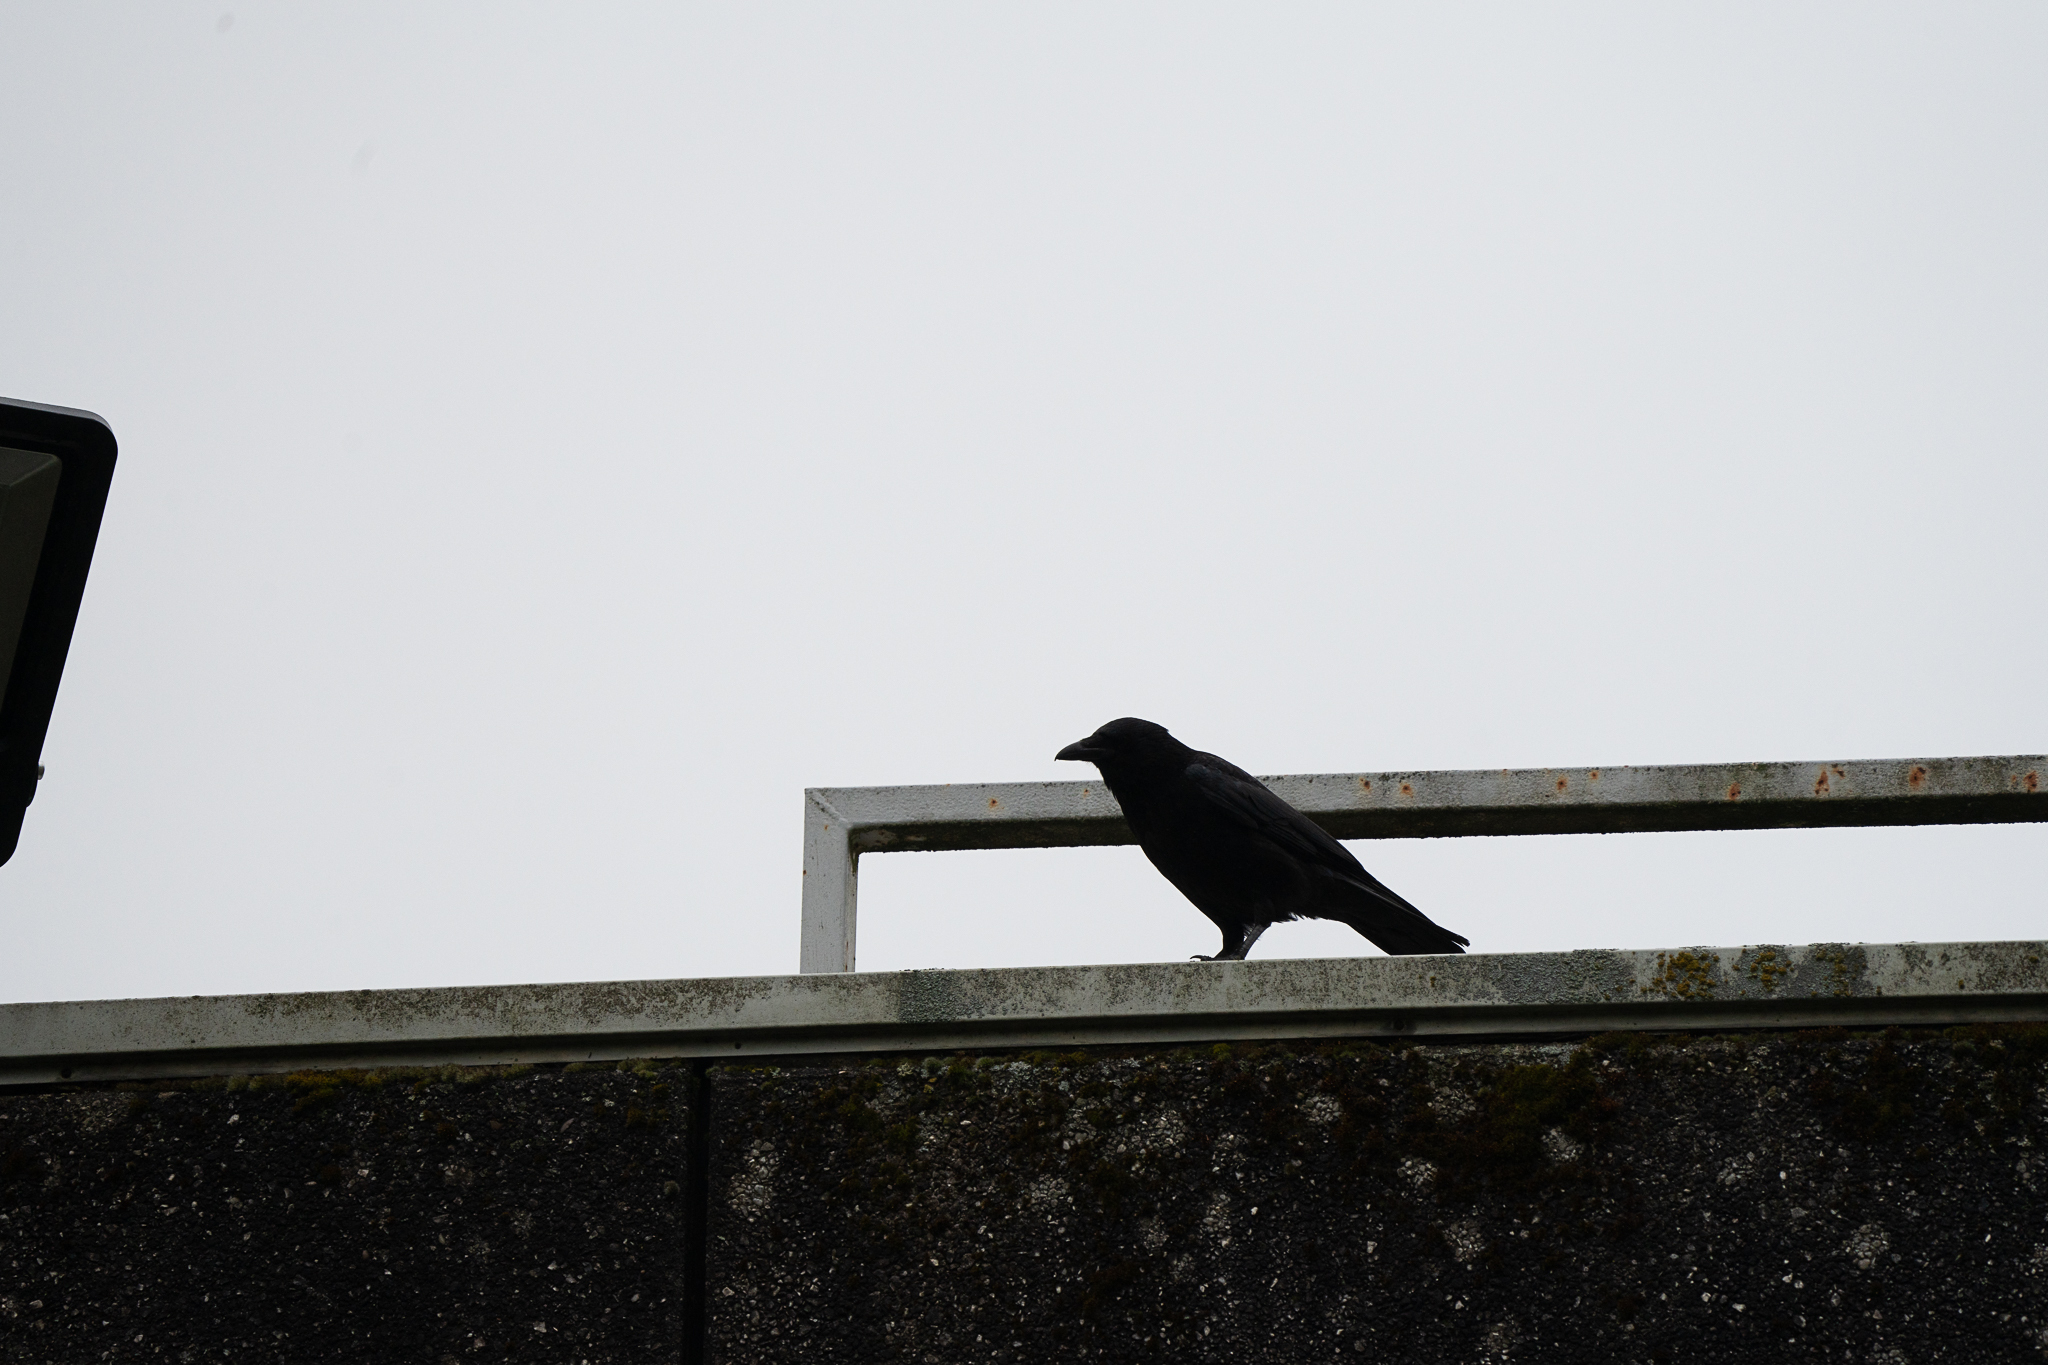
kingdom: Animalia
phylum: Chordata
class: Aves
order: Passeriformes
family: Corvidae
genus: Corvus
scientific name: Corvus corone
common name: Carrion crow
